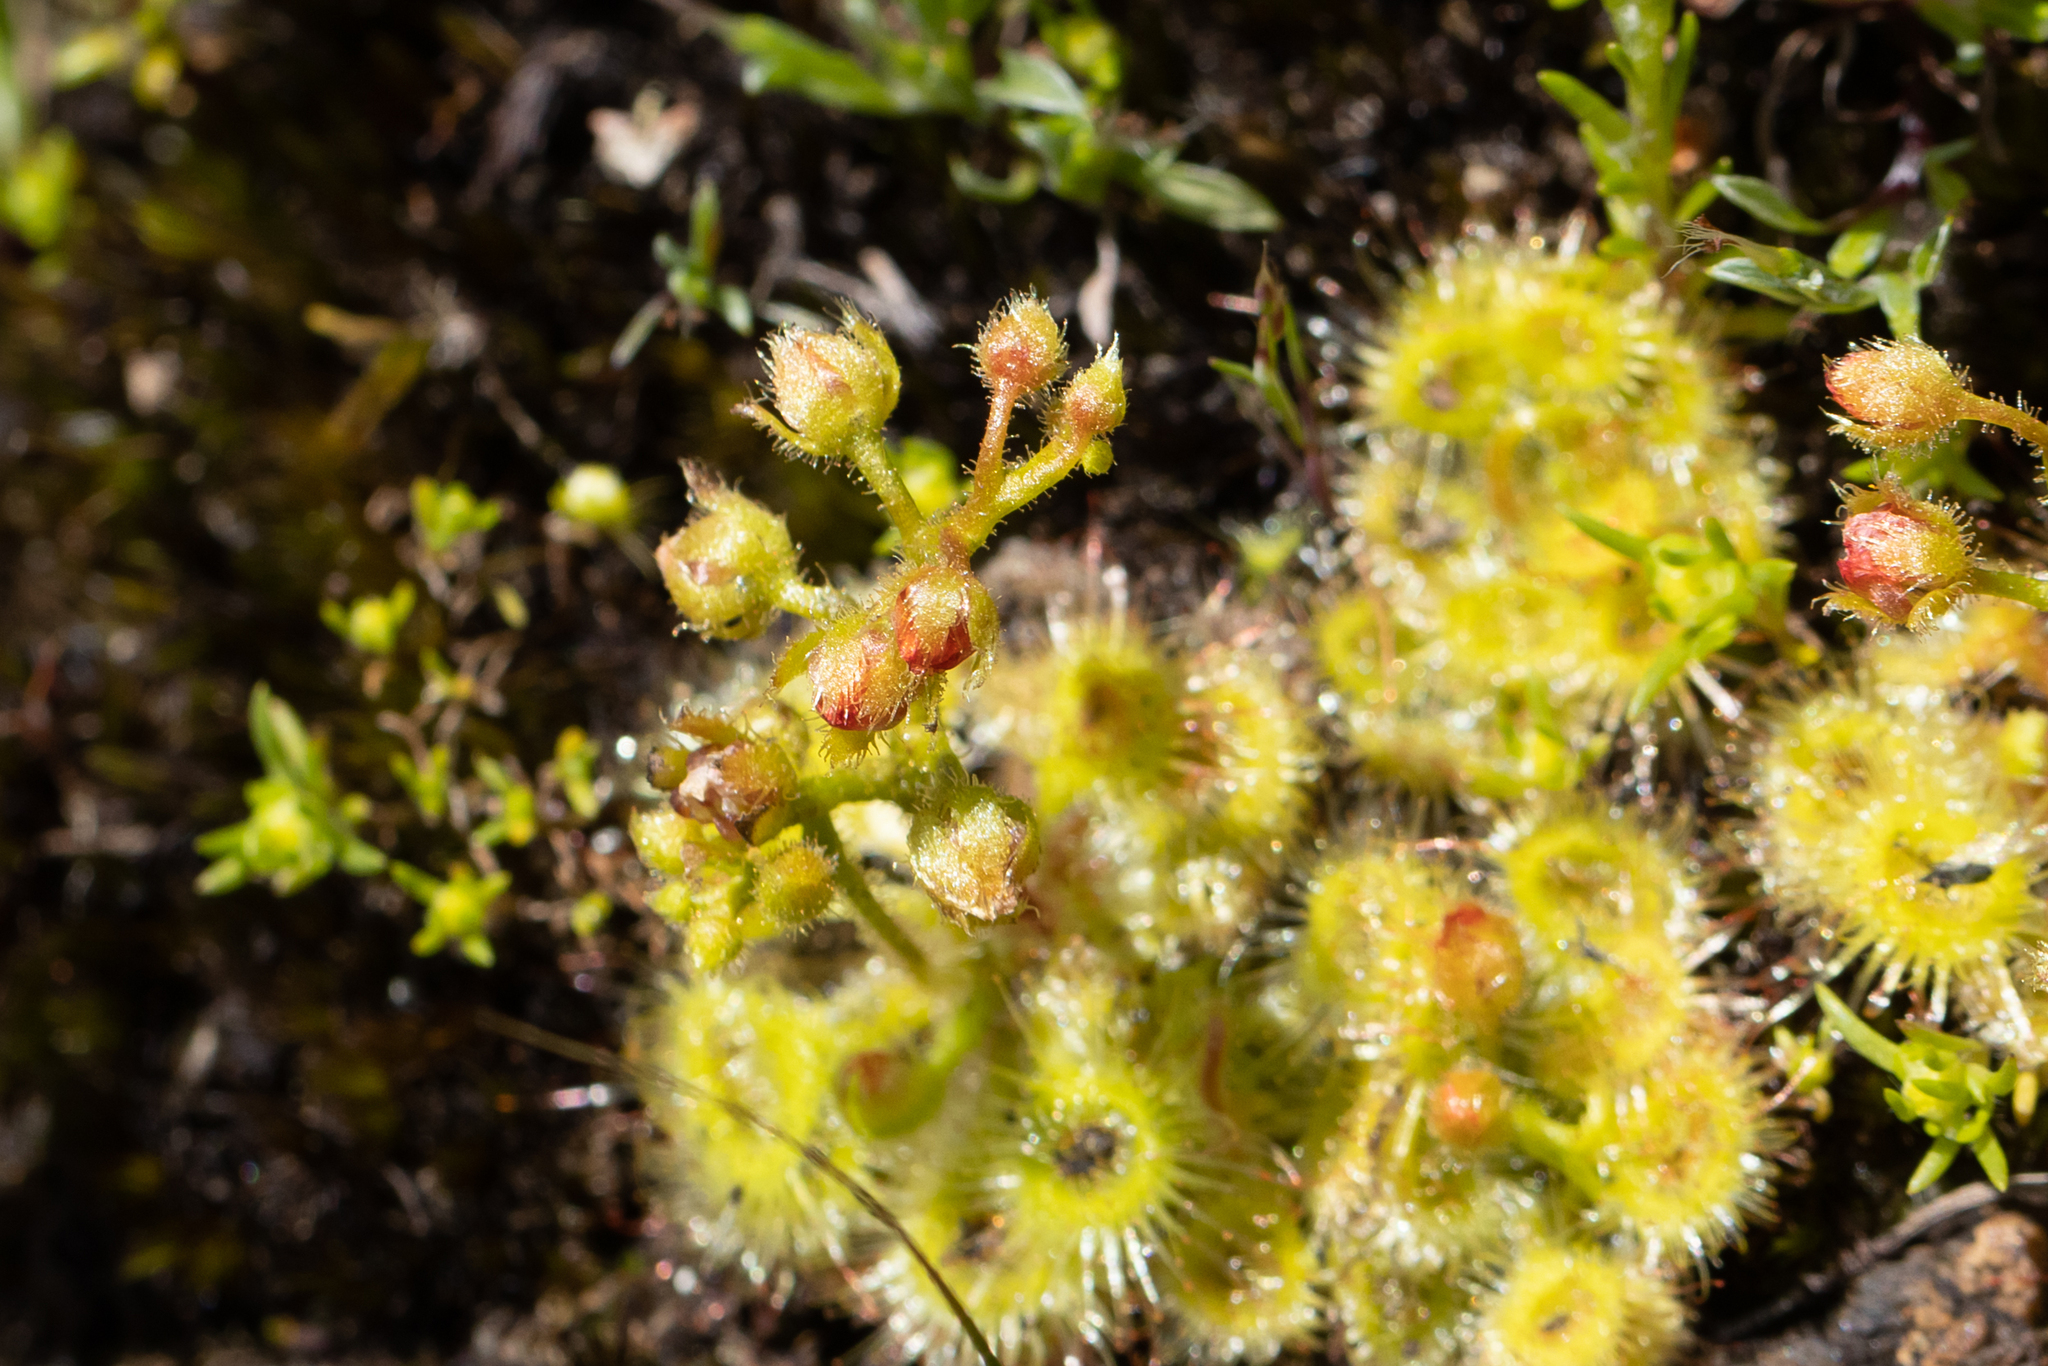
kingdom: Plantae
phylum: Tracheophyta
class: Magnoliopsida
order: Caryophyllales
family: Droseraceae
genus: Drosera
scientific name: Drosera glanduligera
